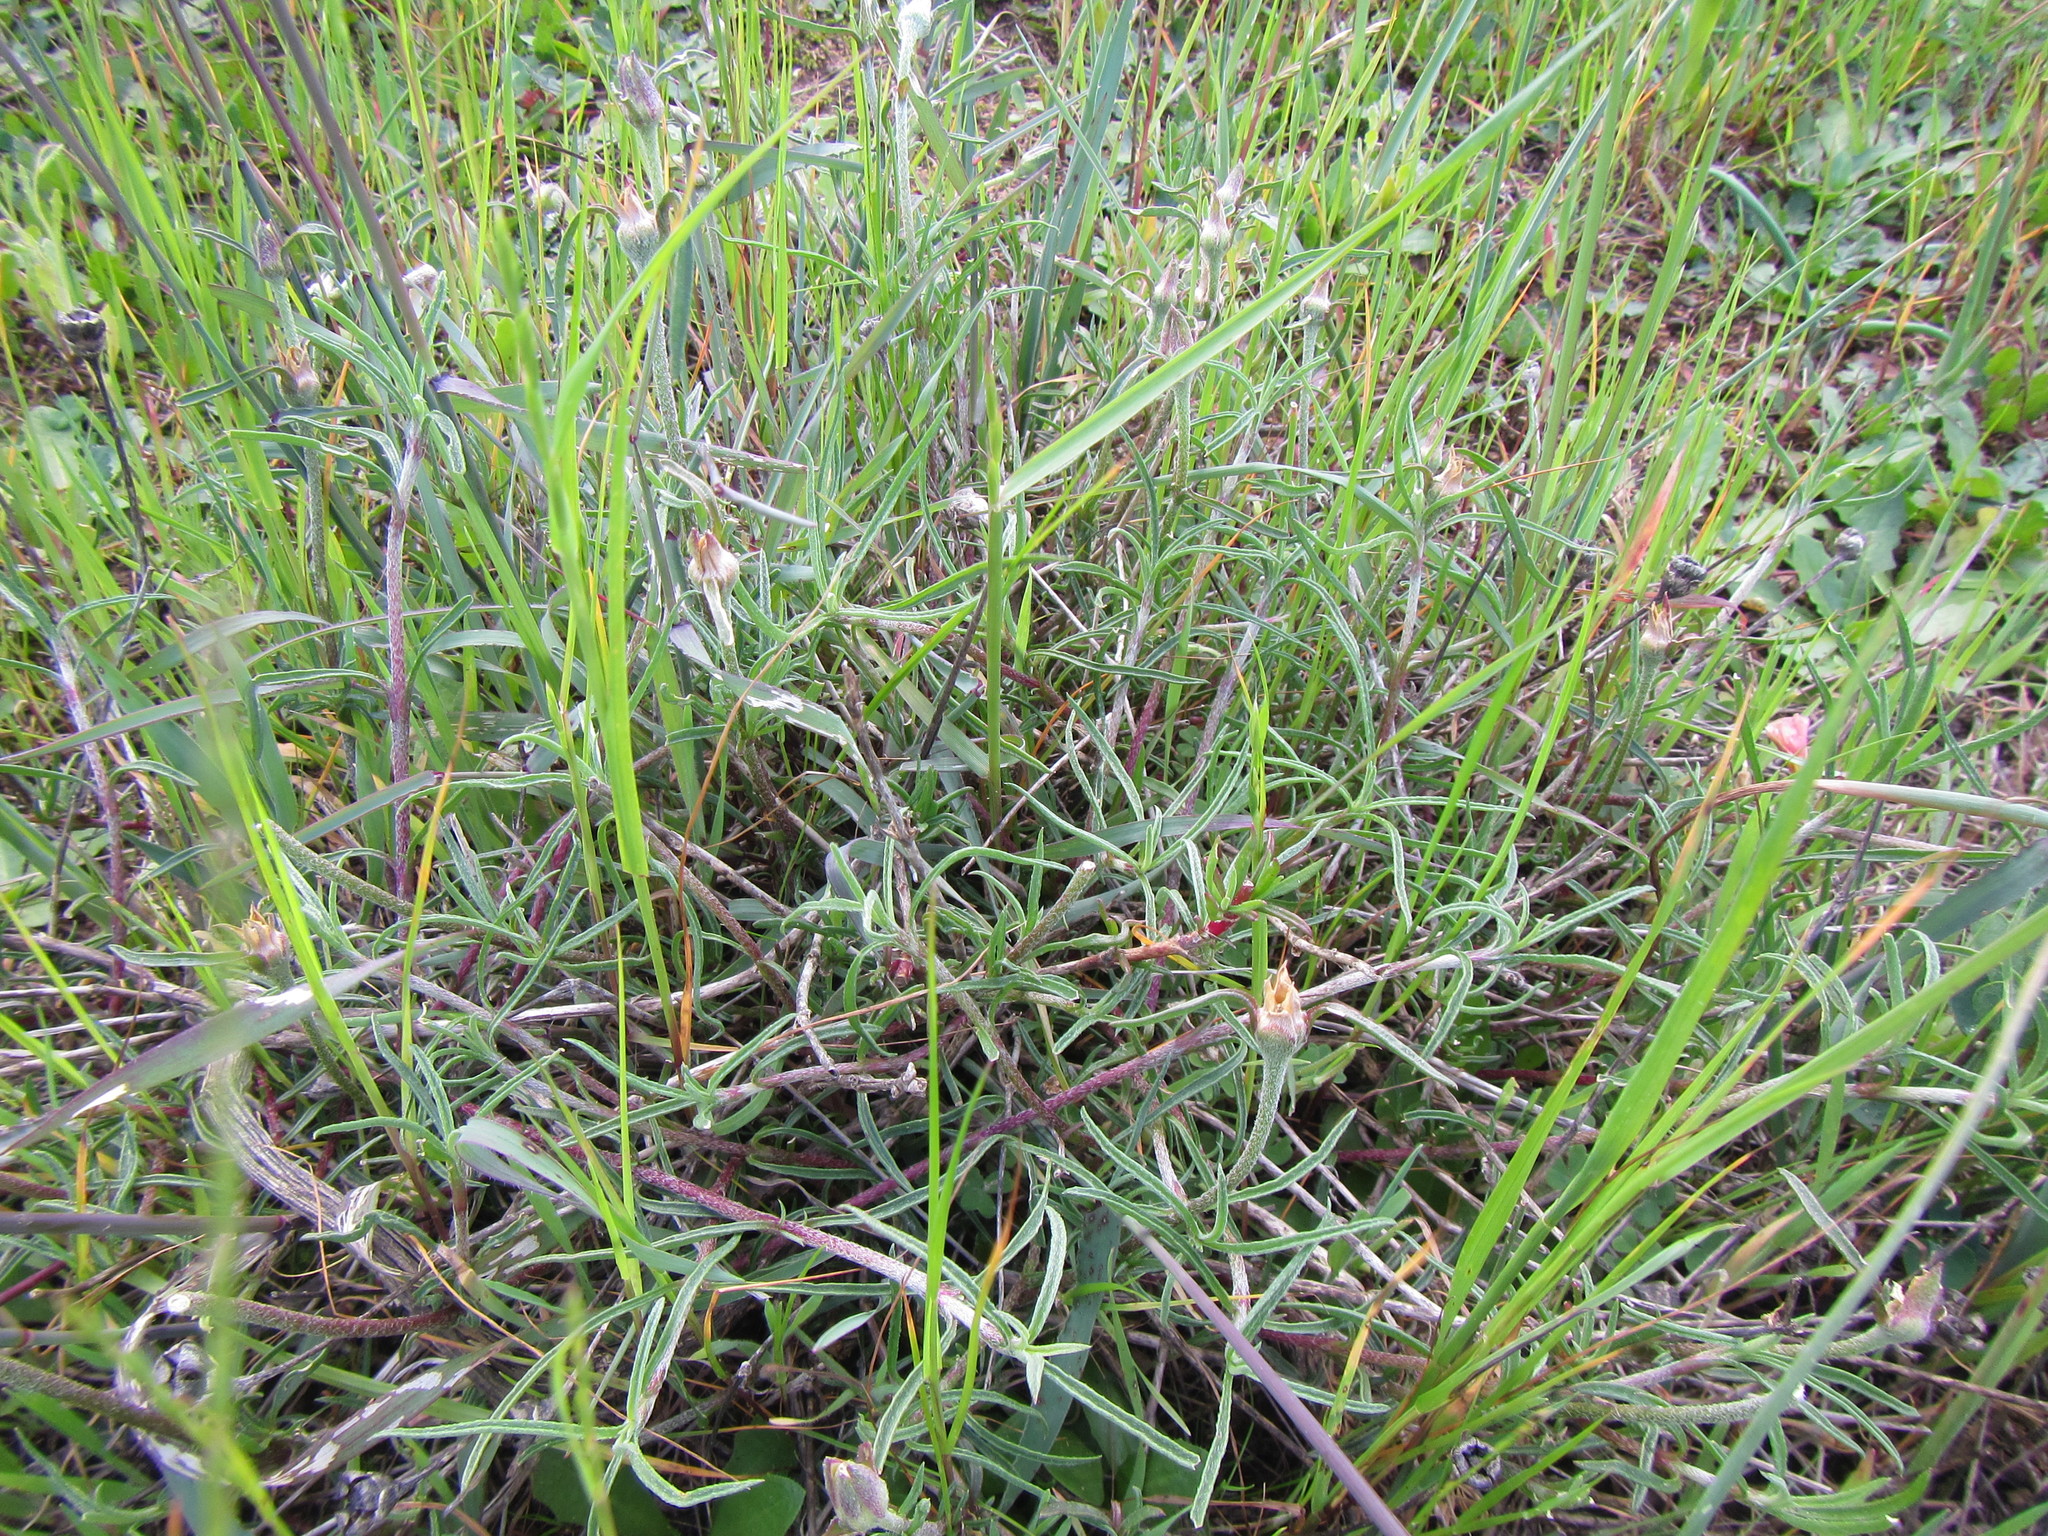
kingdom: Plantae
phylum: Tracheophyta
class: Magnoliopsida
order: Caryophyllales
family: Aizoaceae
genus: Aizoon
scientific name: Aizoon sarmentosum
